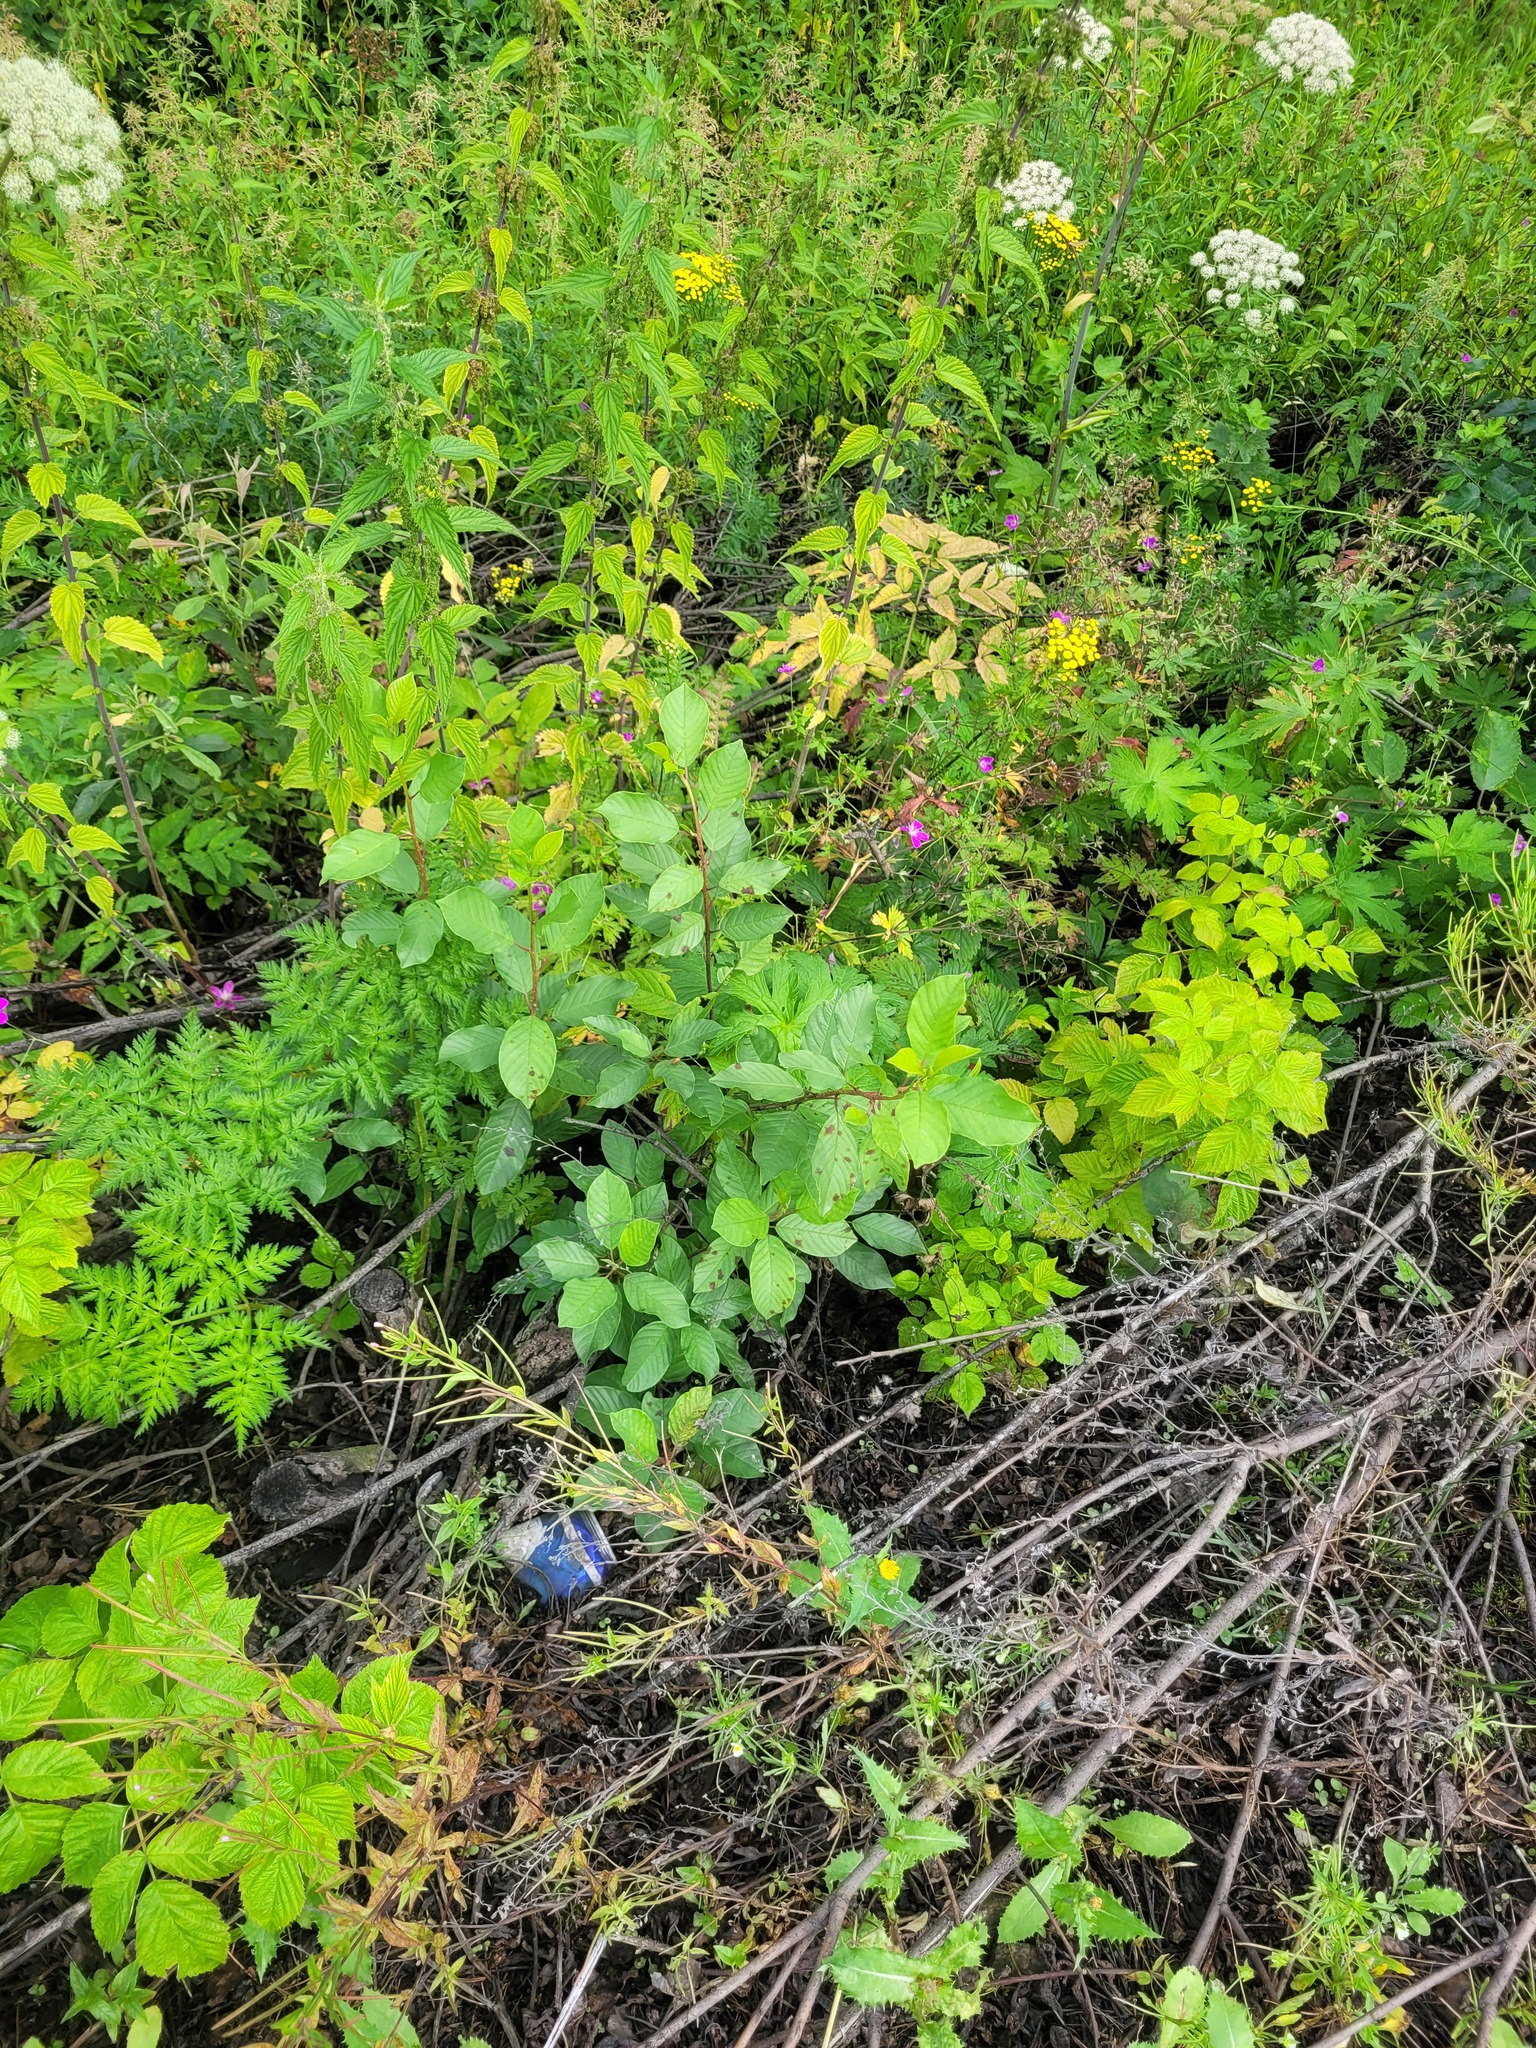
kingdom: Plantae
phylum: Tracheophyta
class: Magnoliopsida
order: Rosales
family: Rhamnaceae
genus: Frangula
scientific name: Frangula alnus
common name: Alder buckthorn
